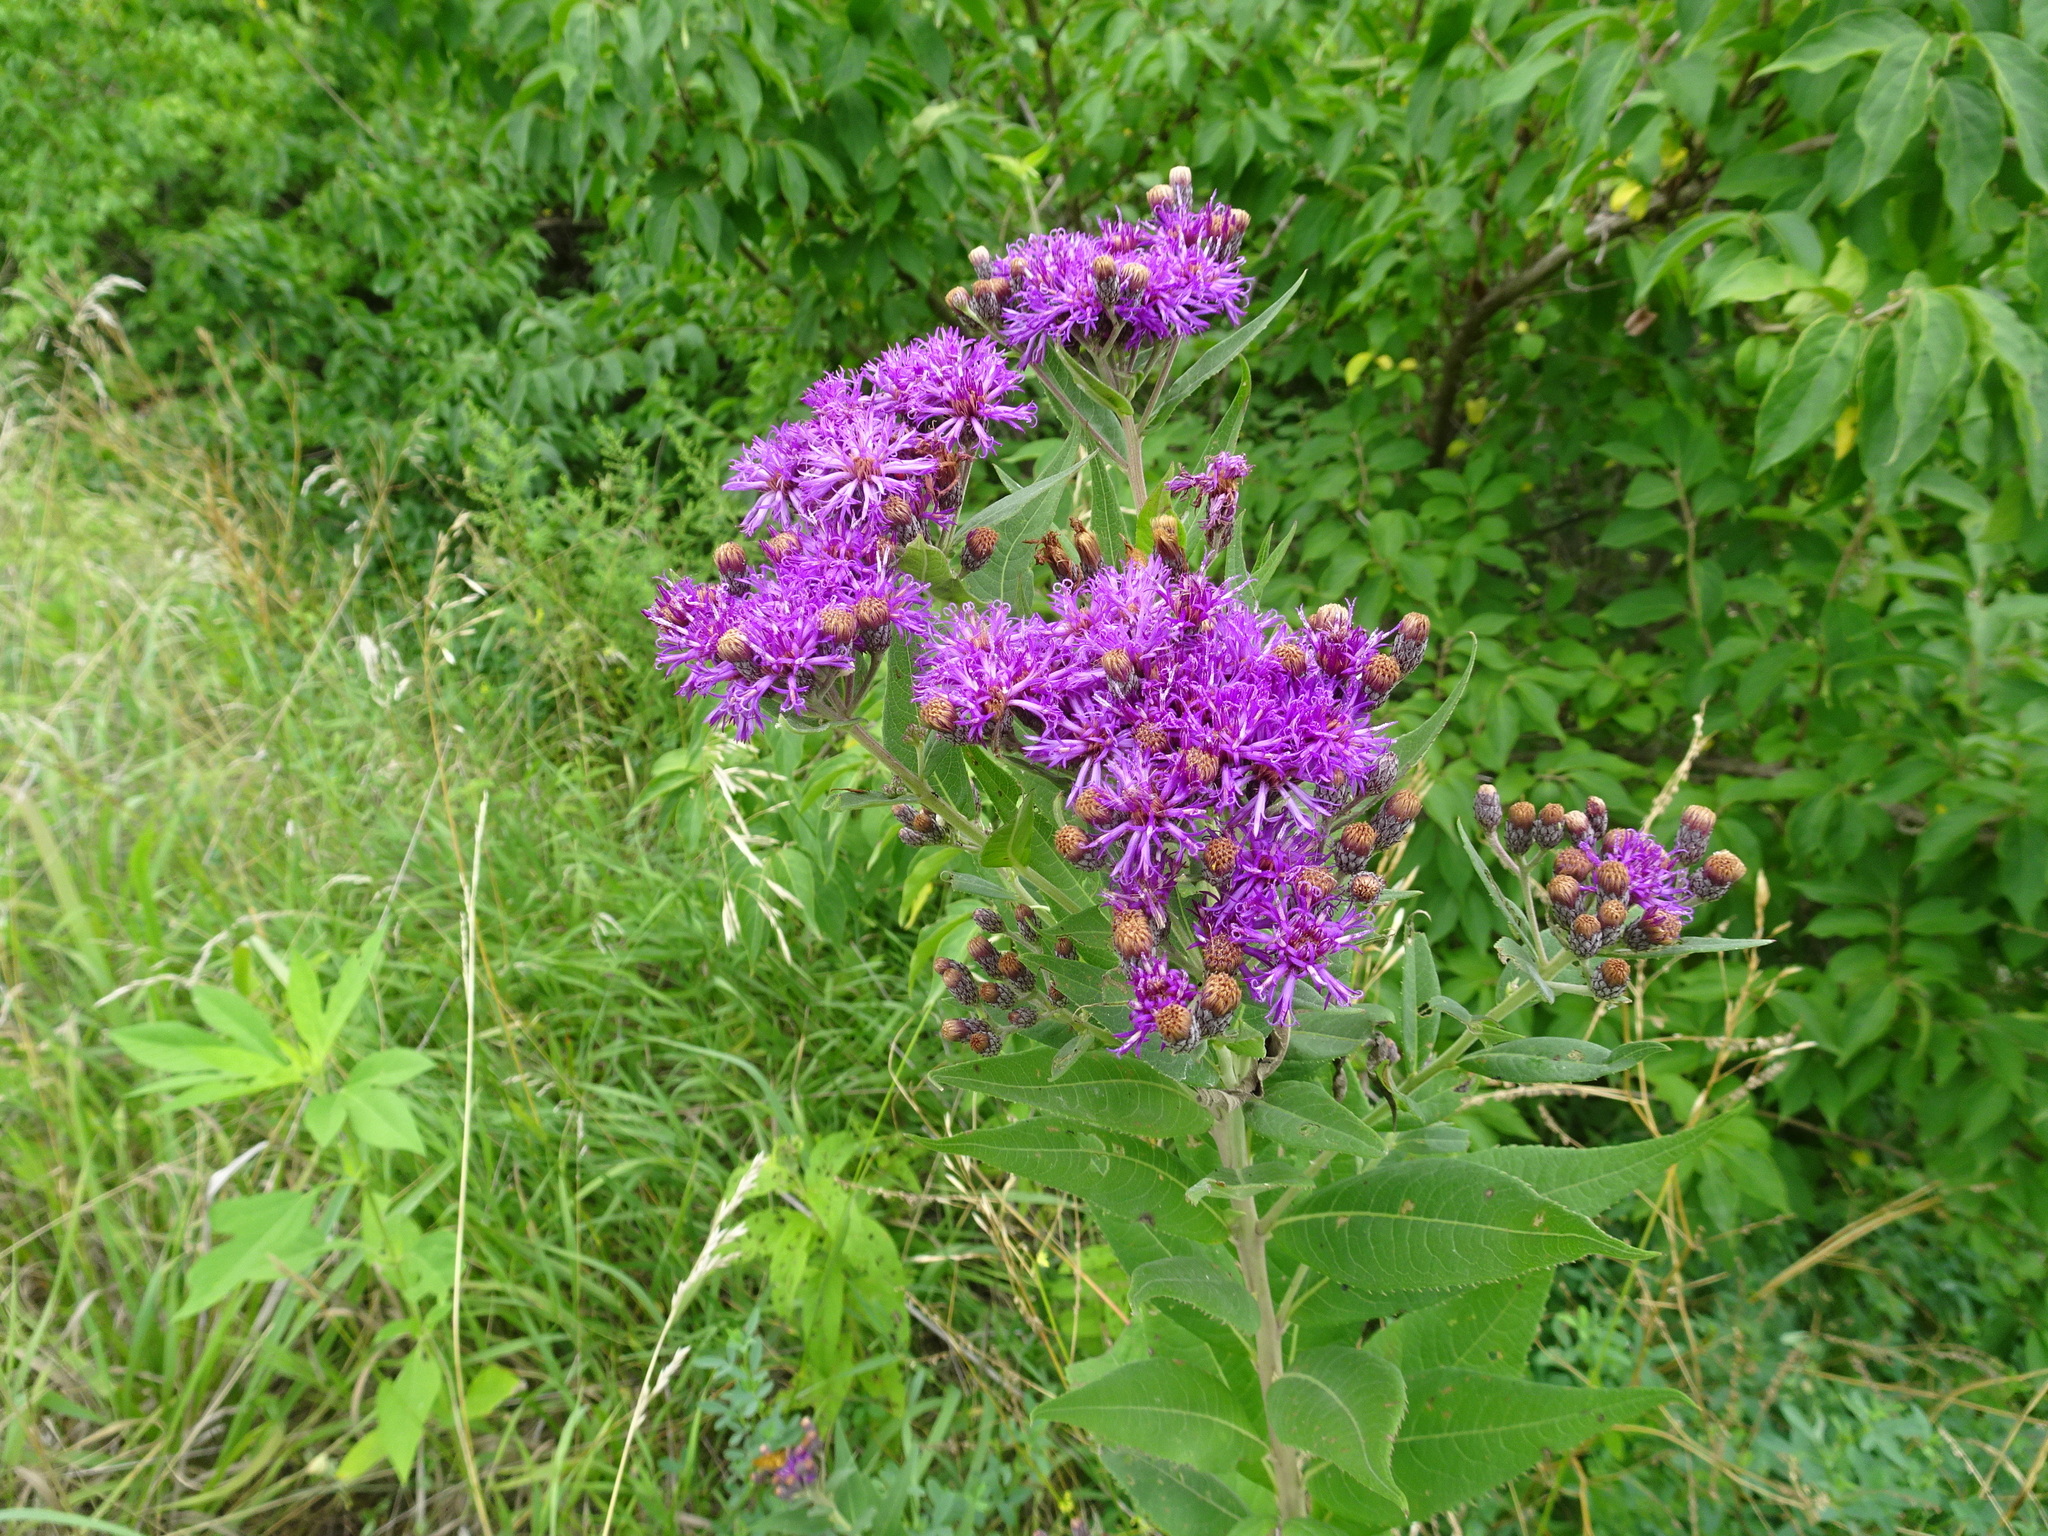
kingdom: Plantae
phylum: Tracheophyta
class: Magnoliopsida
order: Asterales
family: Asteraceae
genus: Vernonia
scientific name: Vernonia baldwinii
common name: Western ironweed
